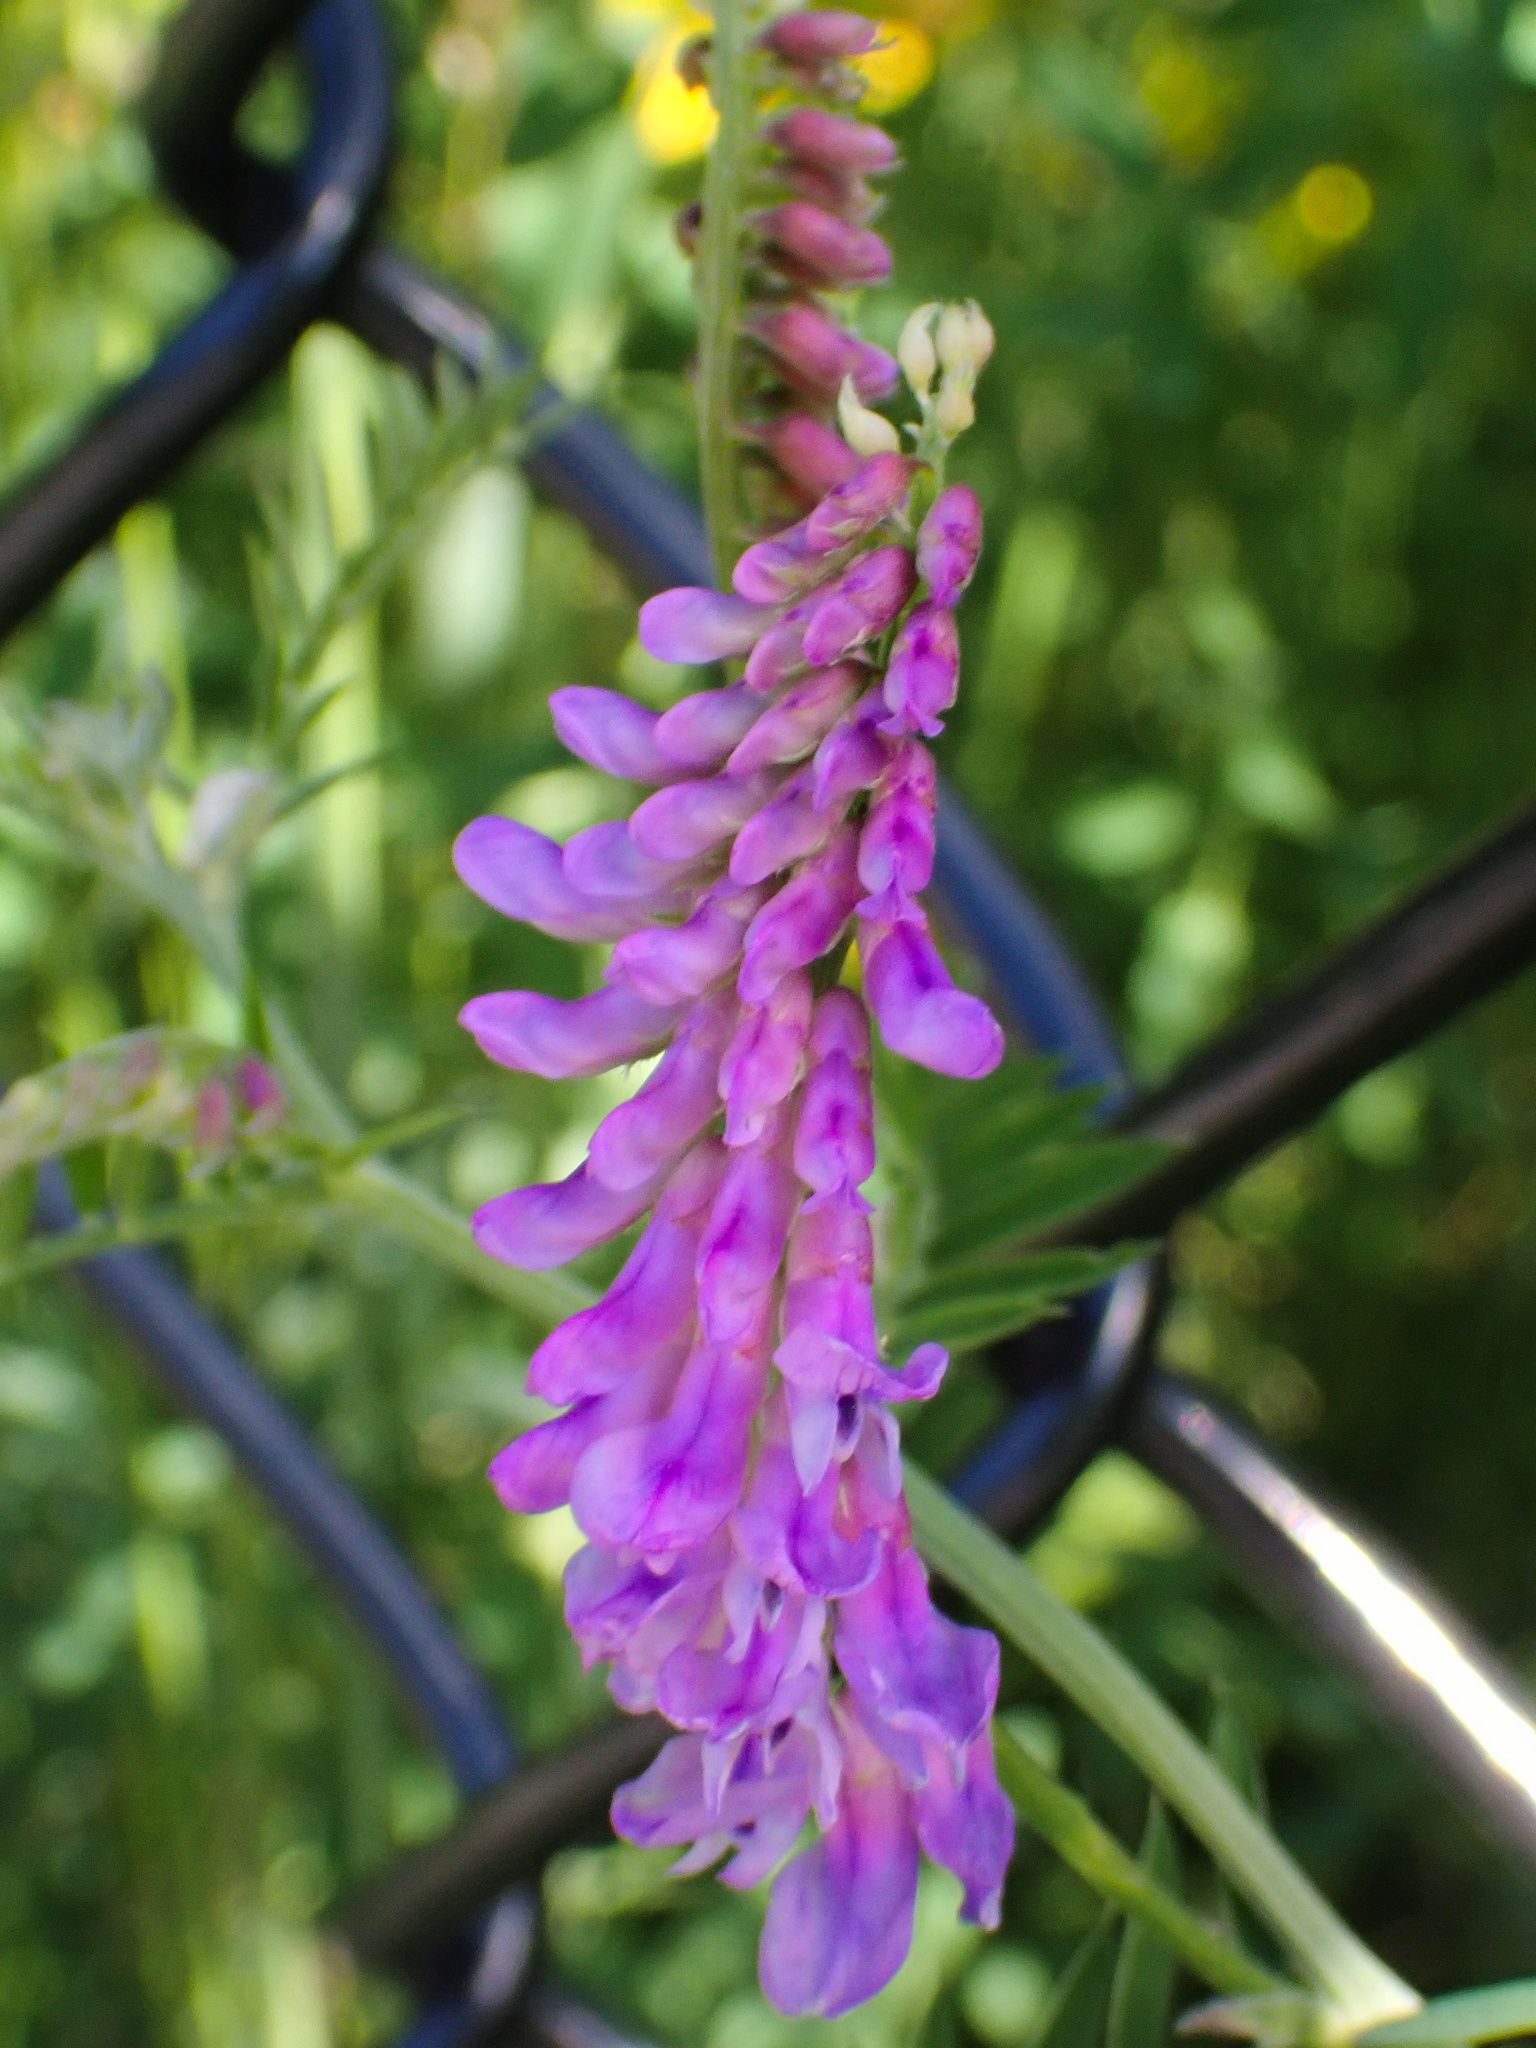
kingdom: Plantae
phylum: Tracheophyta
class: Magnoliopsida
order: Fabales
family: Fabaceae
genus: Vicia
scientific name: Vicia cracca
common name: Bird vetch
